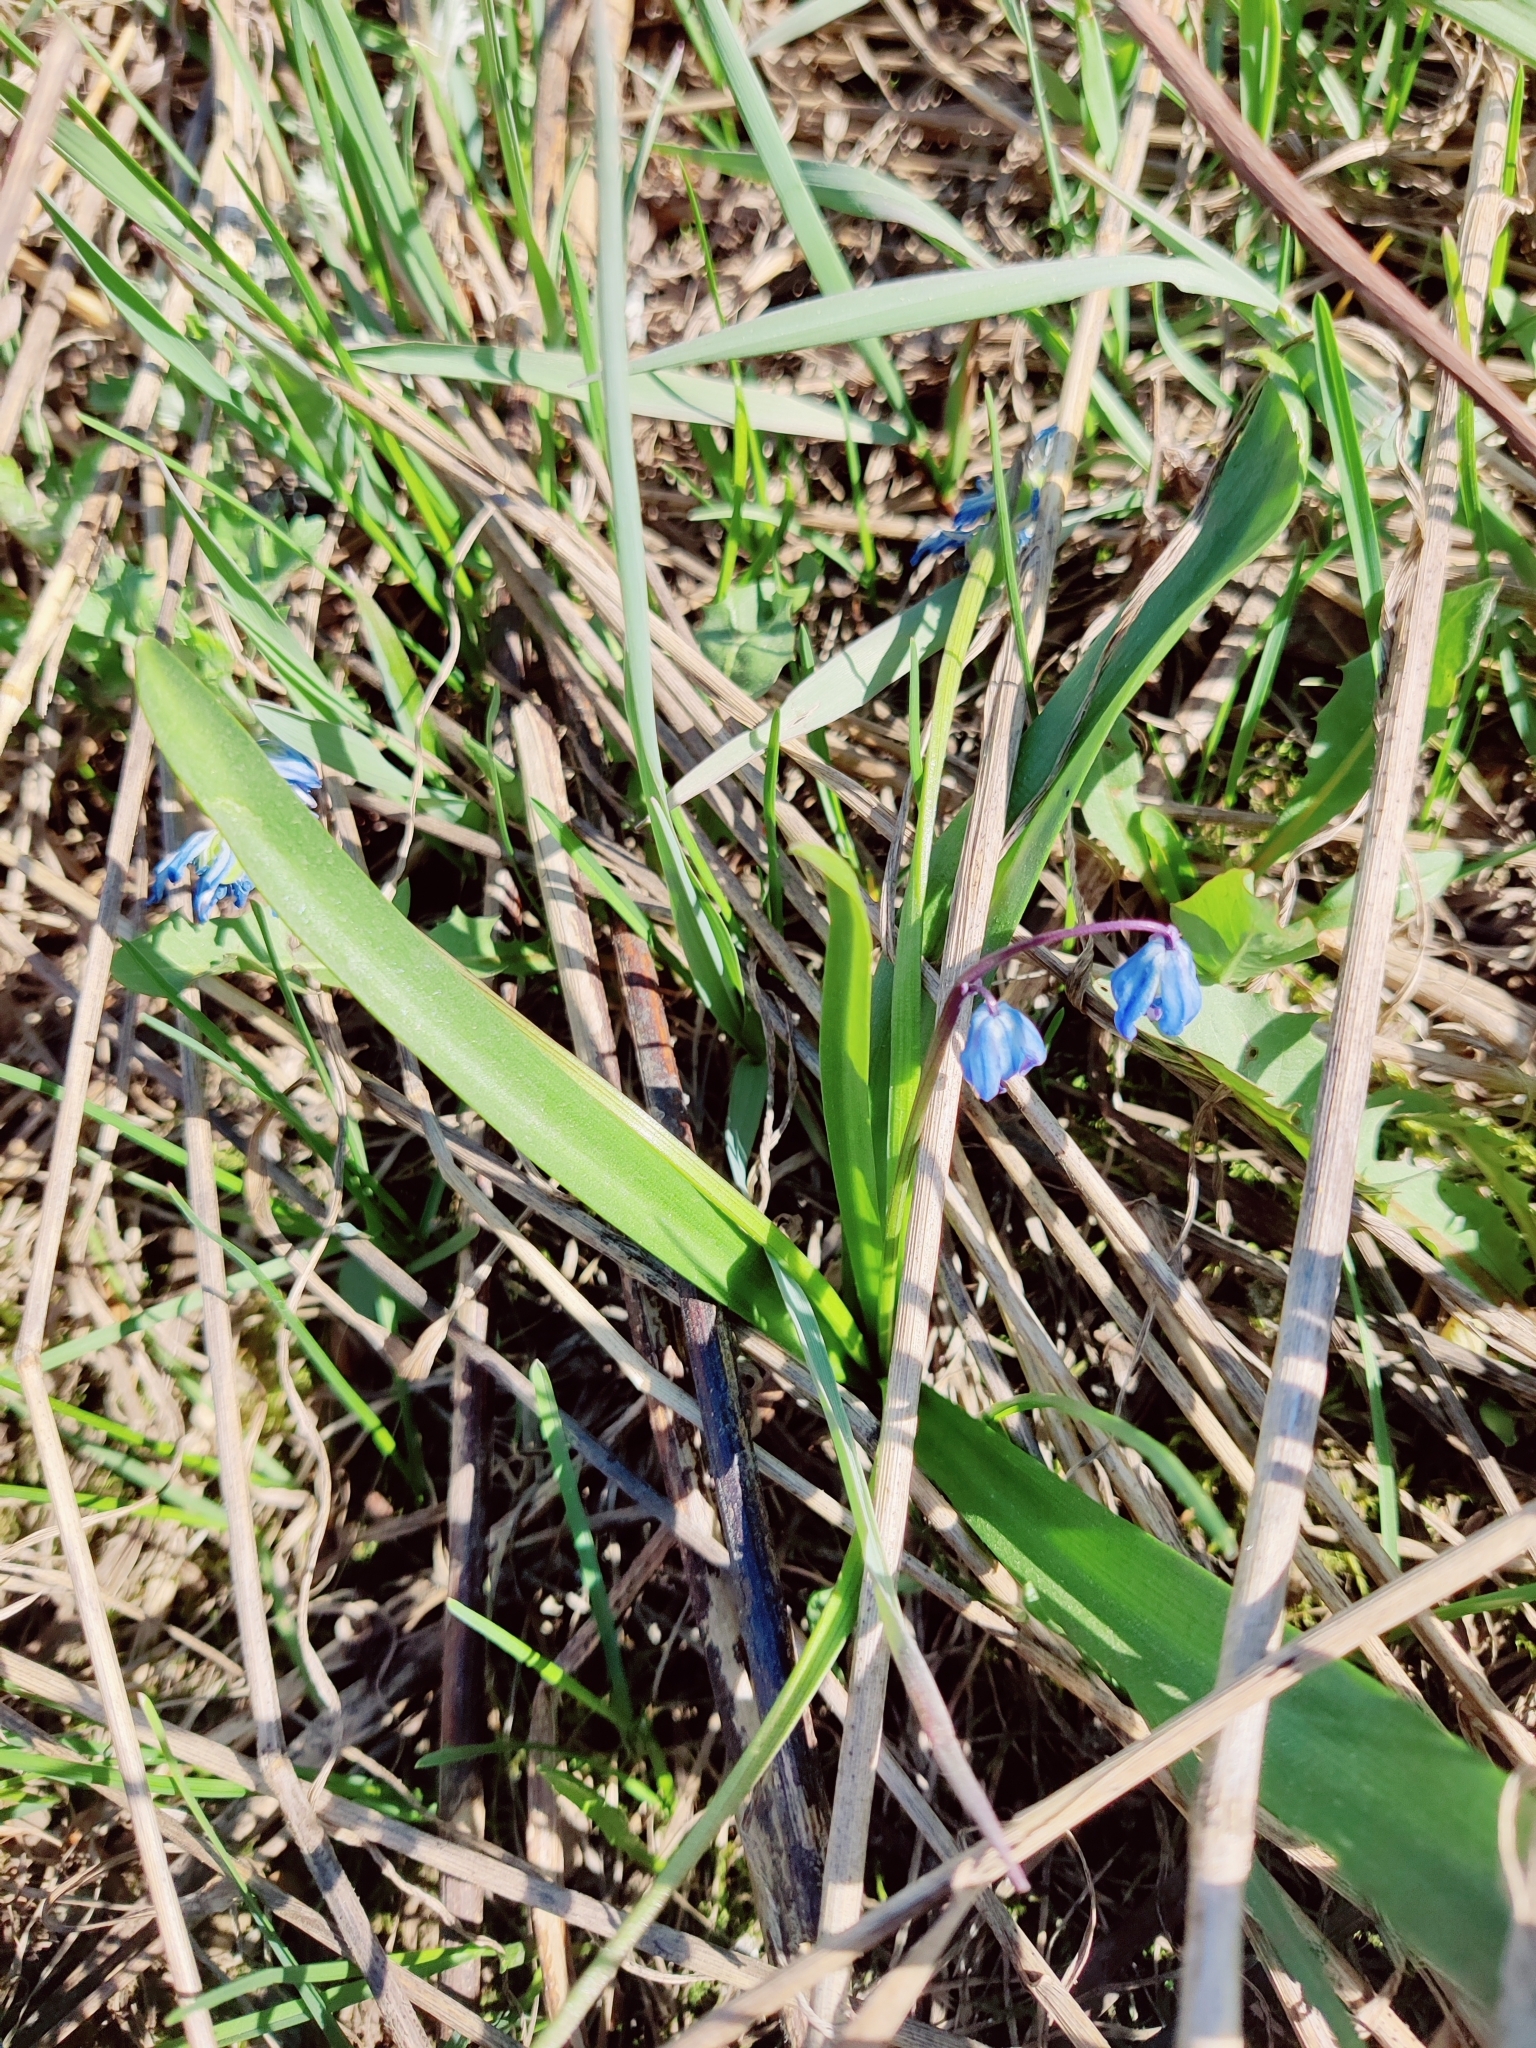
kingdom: Plantae
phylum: Tracheophyta
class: Liliopsida
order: Asparagales
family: Asparagaceae
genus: Scilla
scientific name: Scilla siberica
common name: Siberian squill
